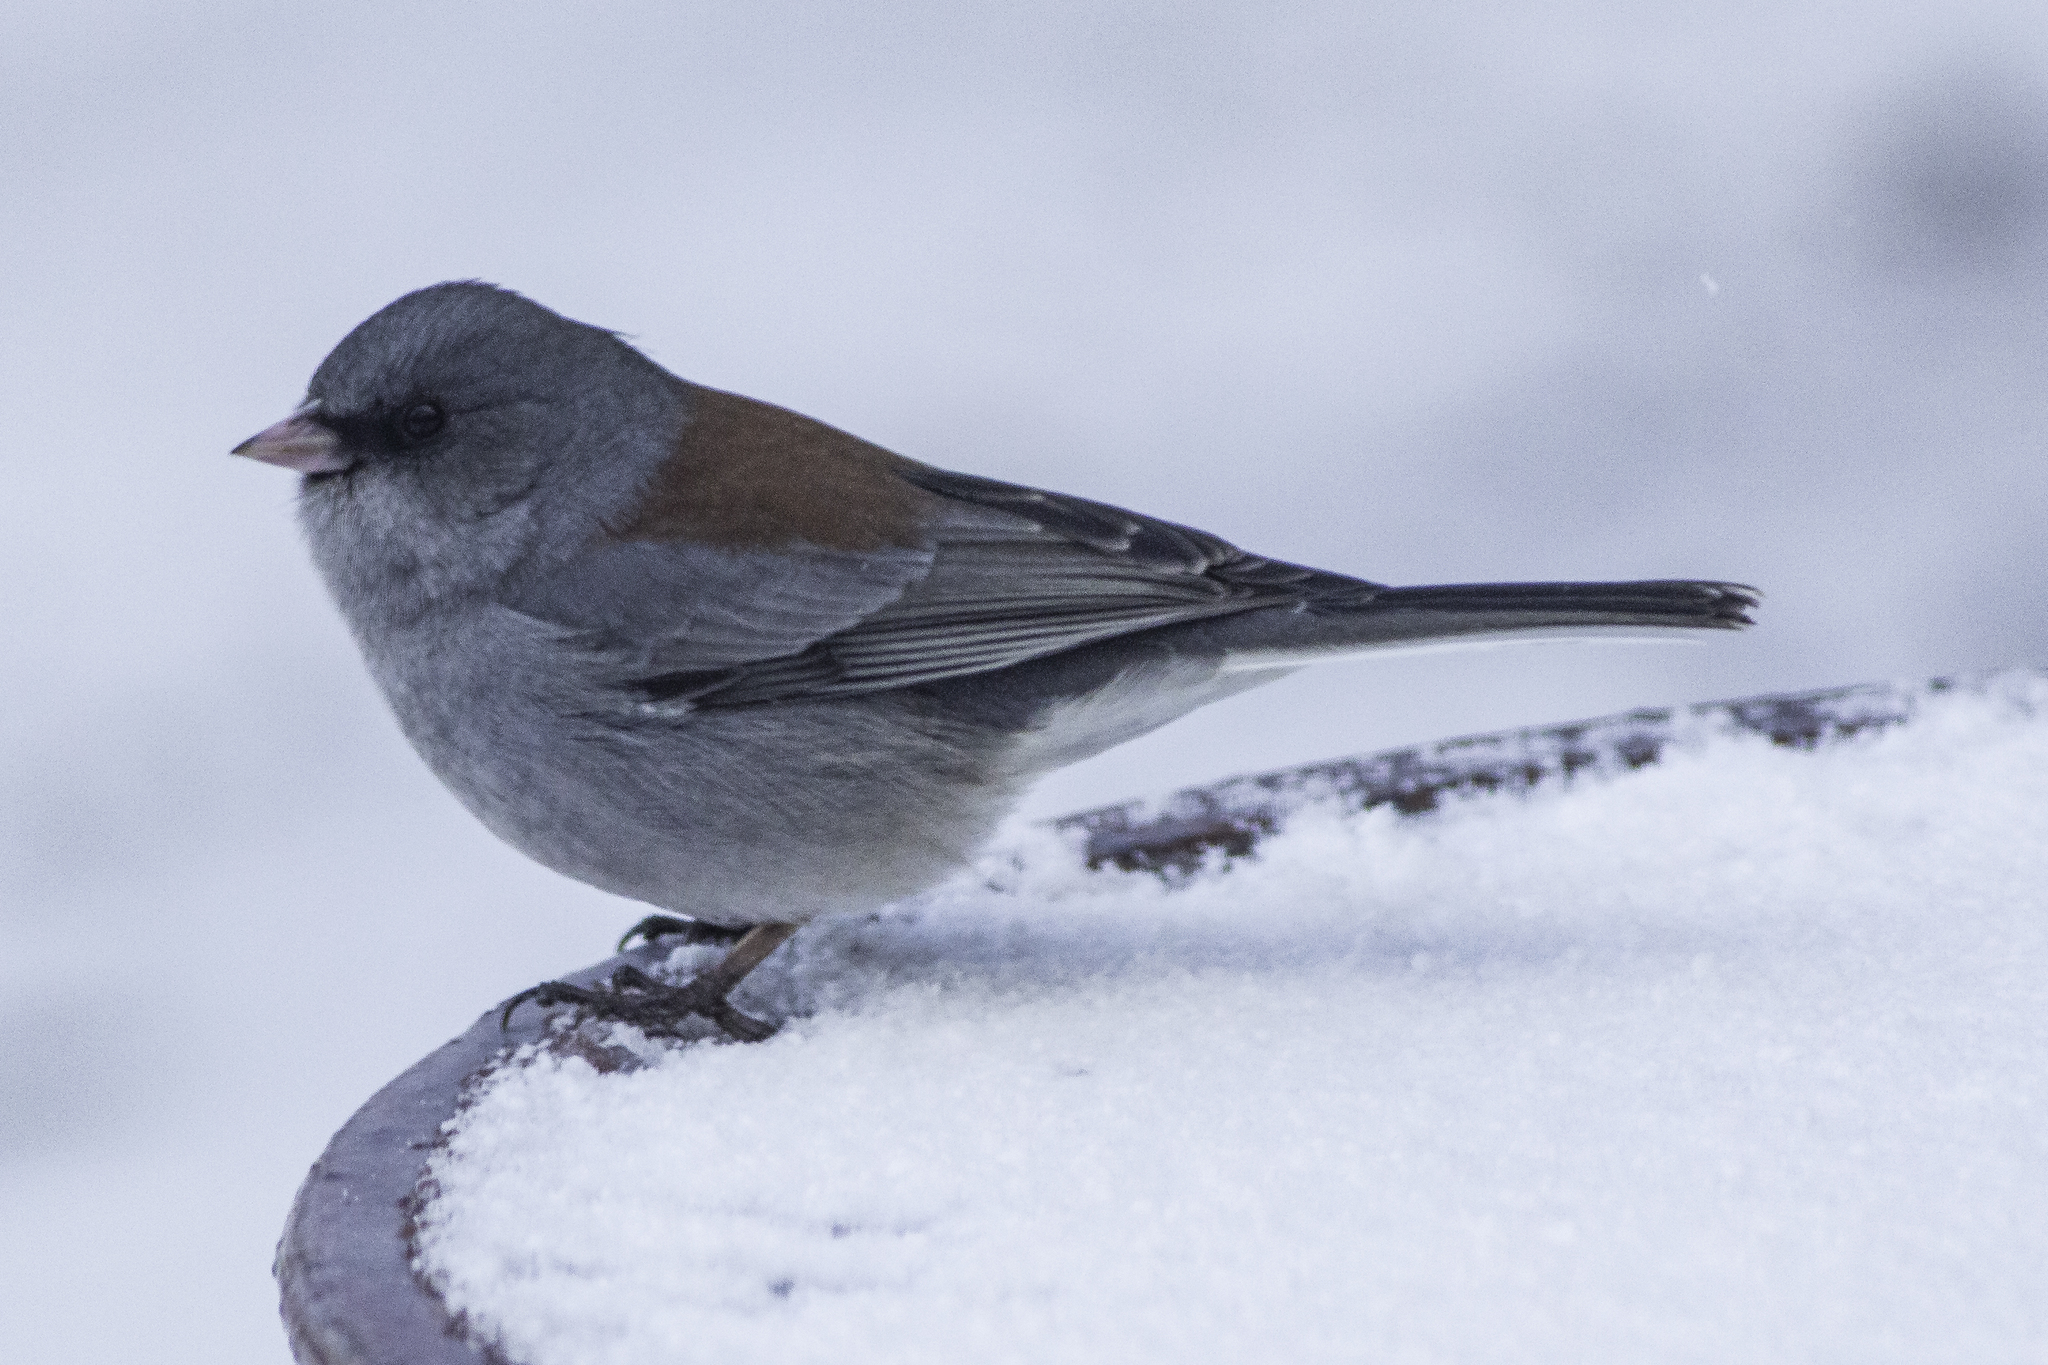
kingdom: Animalia
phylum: Chordata
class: Aves
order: Passeriformes
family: Passerellidae
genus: Junco
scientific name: Junco hyemalis
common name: Dark-eyed junco
